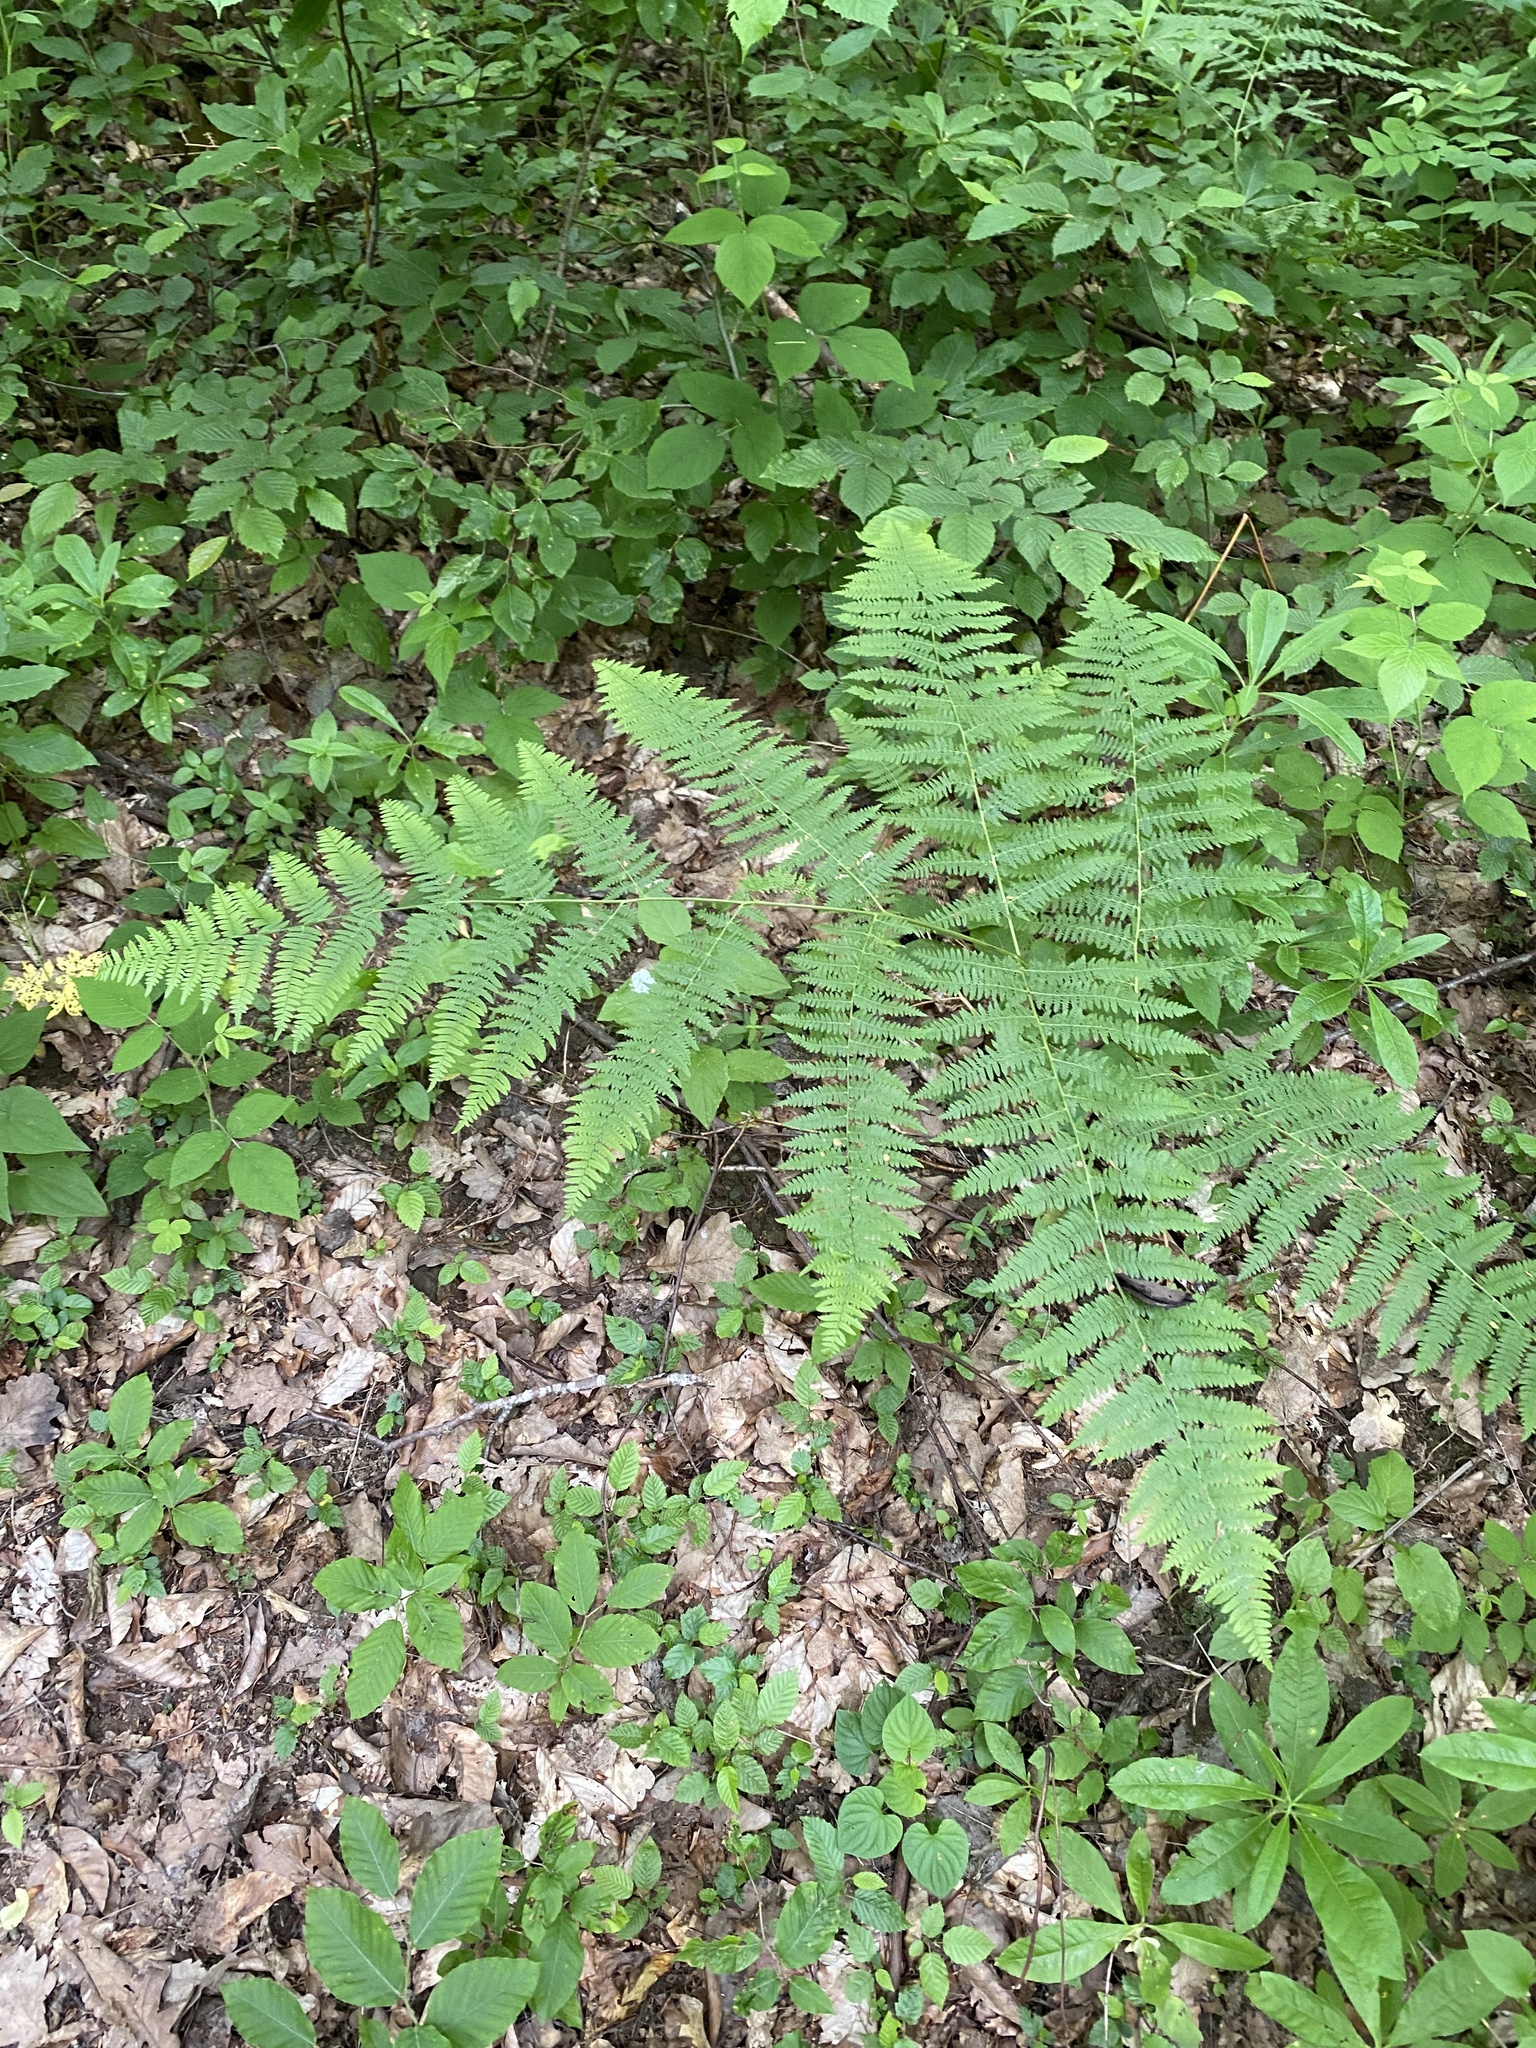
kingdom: Plantae
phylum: Tracheophyta
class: Polypodiopsida
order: Polypodiales
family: Dennstaedtiaceae
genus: Pteridium
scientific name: Pteridium tauricum
